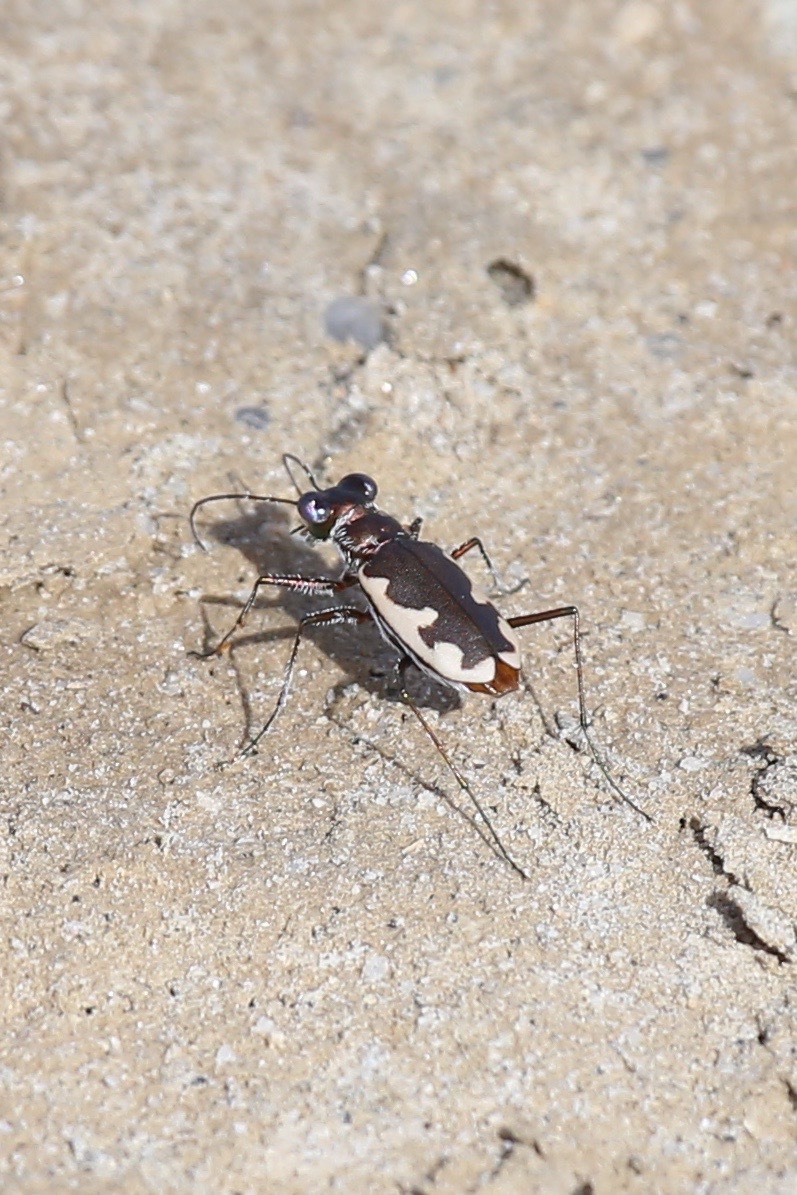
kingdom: Animalia
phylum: Arthropoda
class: Insecta
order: Coleoptera
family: Carabidae
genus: Eunota
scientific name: Eunota californica
